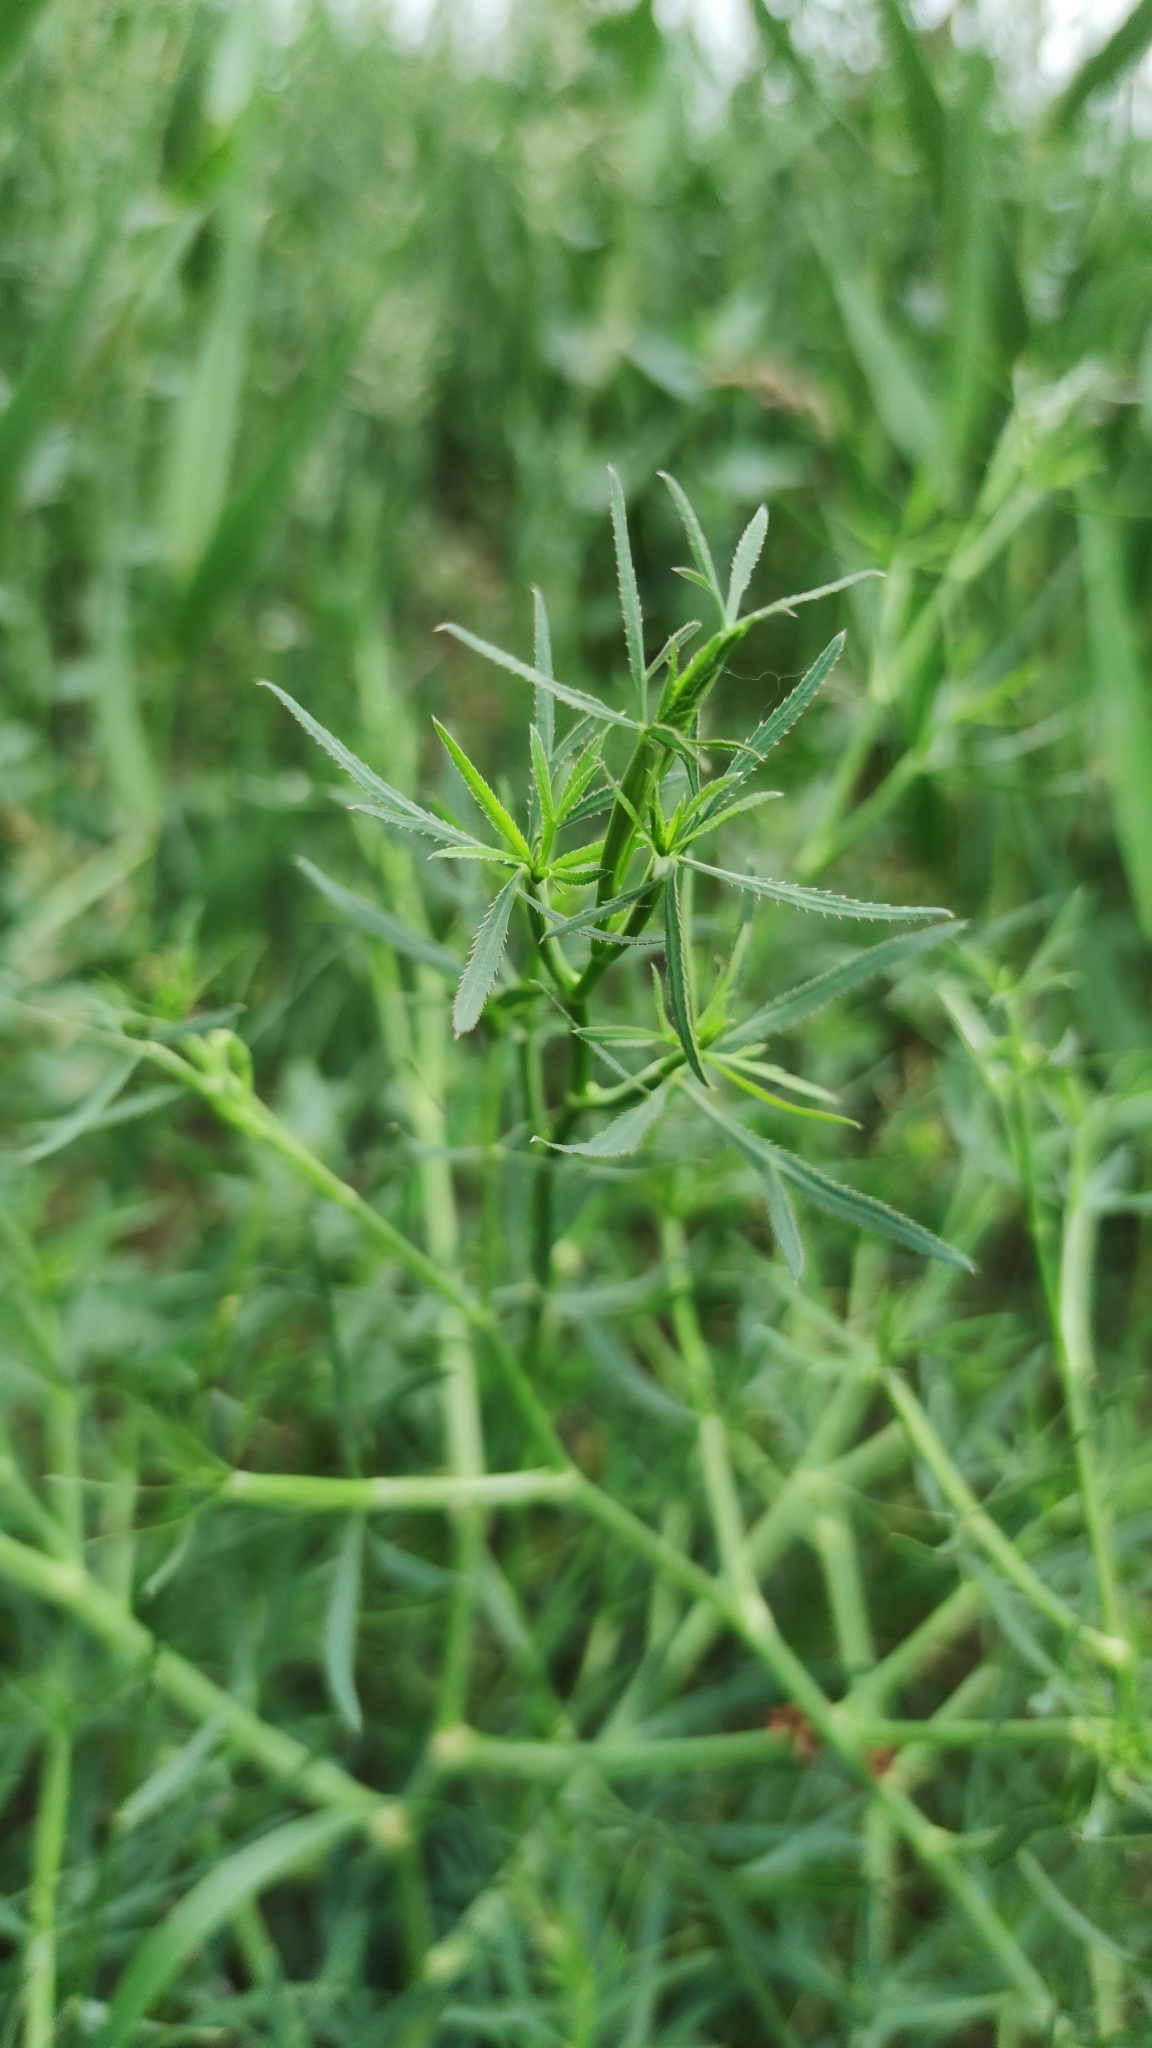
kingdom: Plantae
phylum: Tracheophyta
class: Magnoliopsida
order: Apiales
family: Apiaceae
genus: Falcaria
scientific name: Falcaria vulgaris
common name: Longleaf
